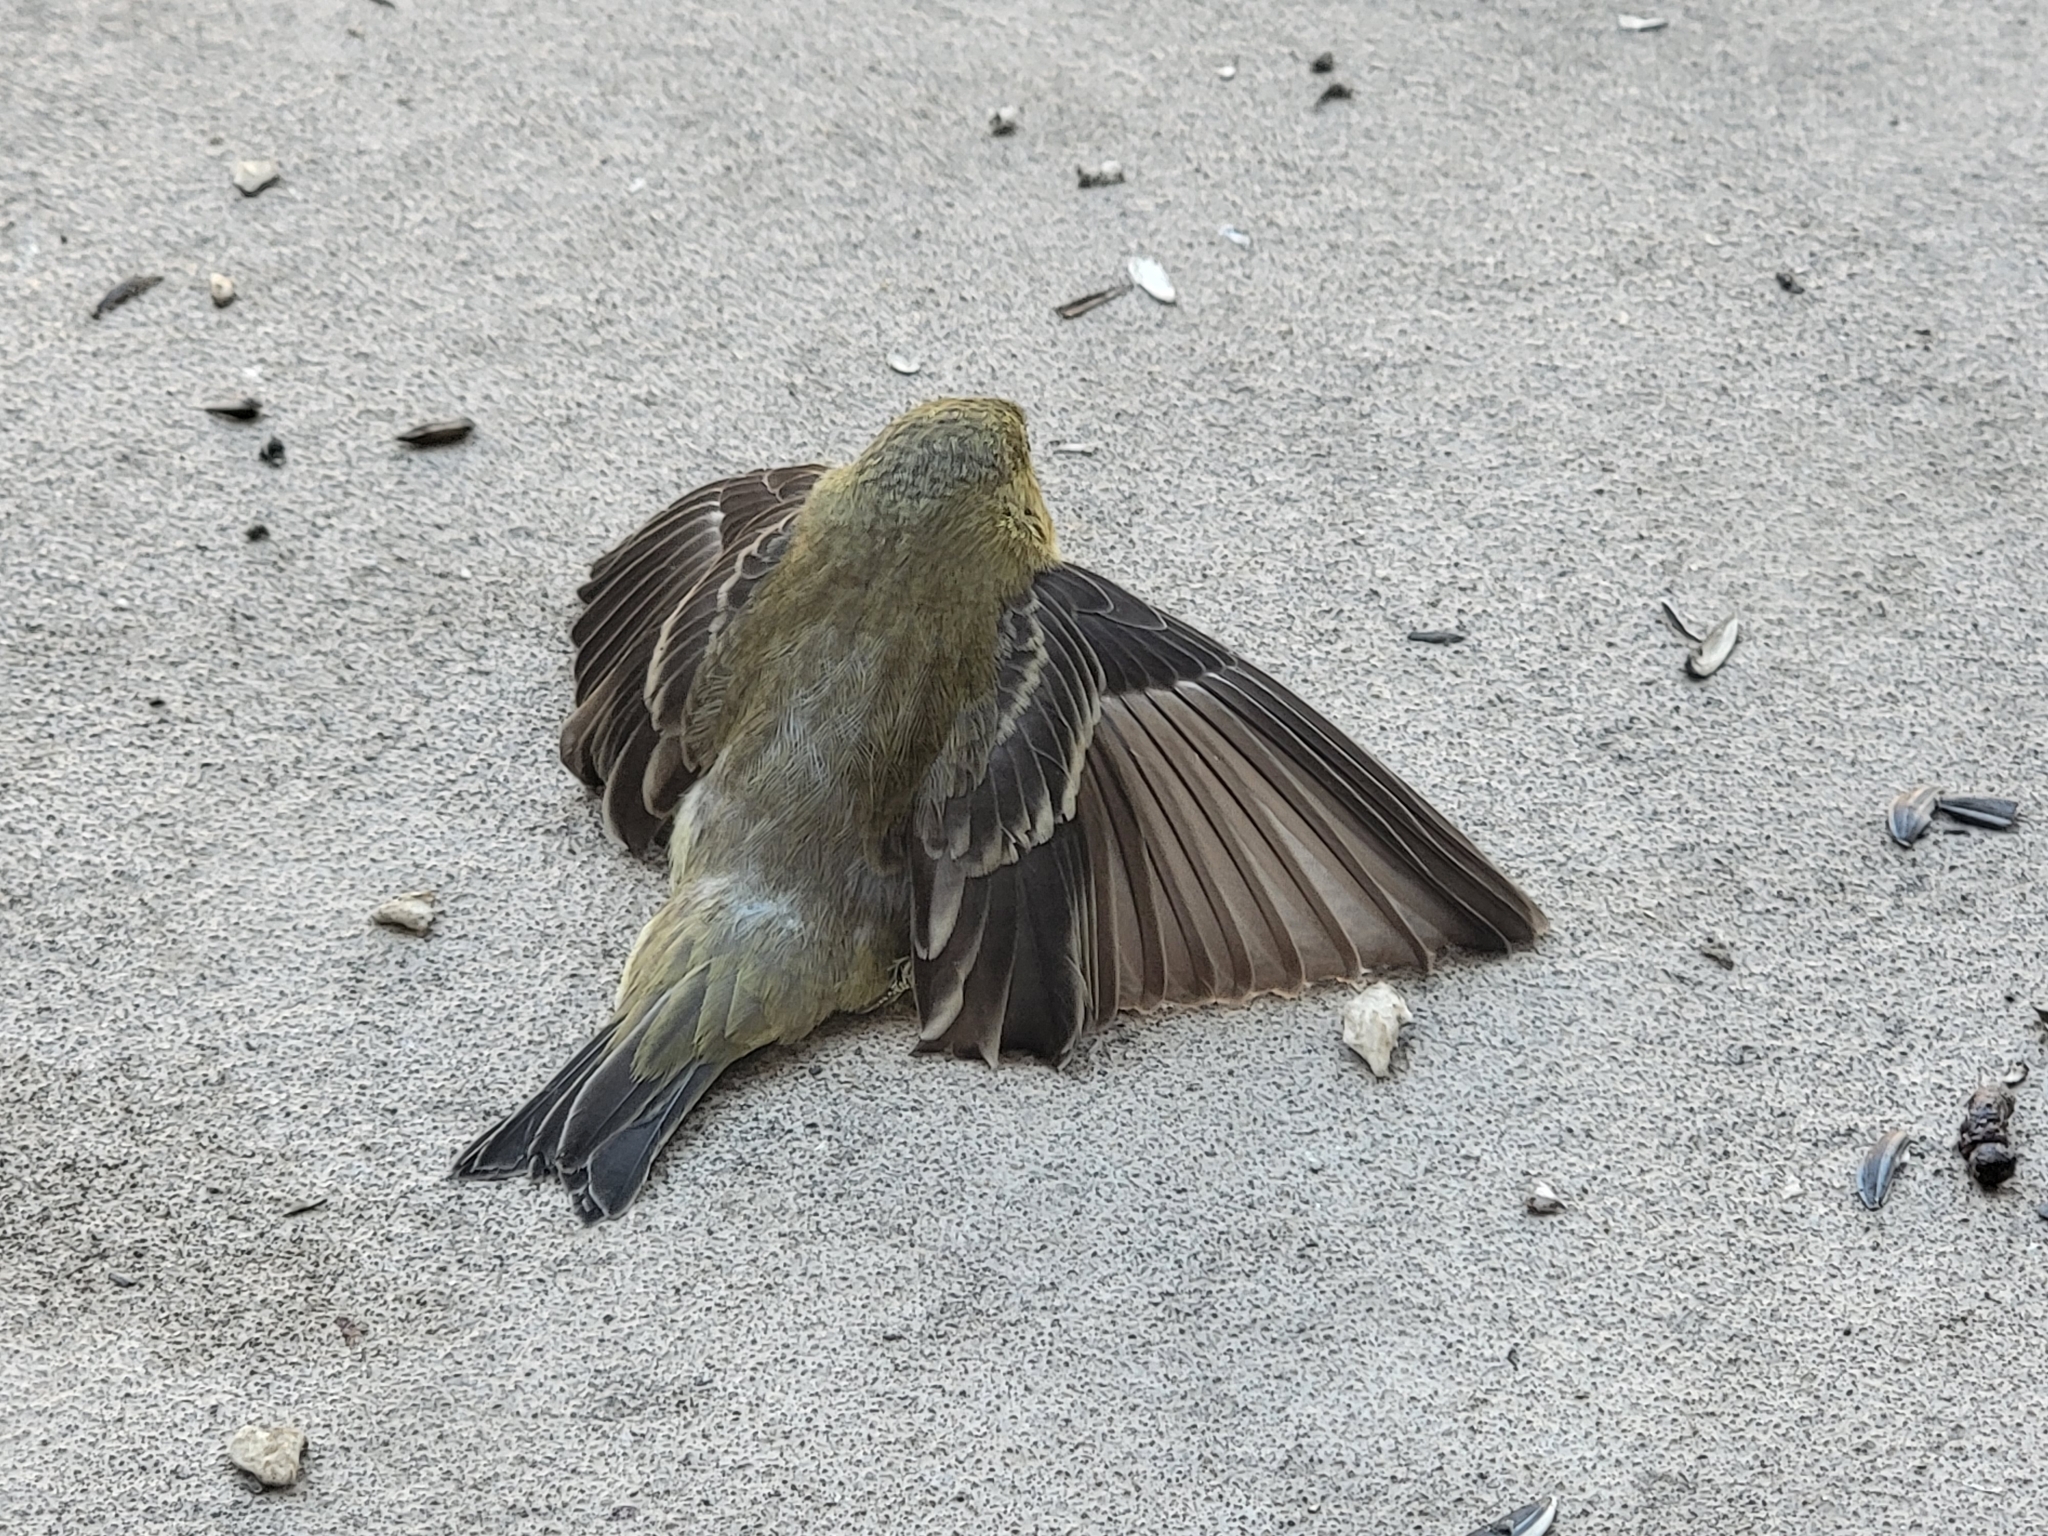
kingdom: Animalia
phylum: Chordata
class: Aves
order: Passeriformes
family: Fringillidae
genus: Spinus
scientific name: Spinus psaltria
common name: Lesser goldfinch
